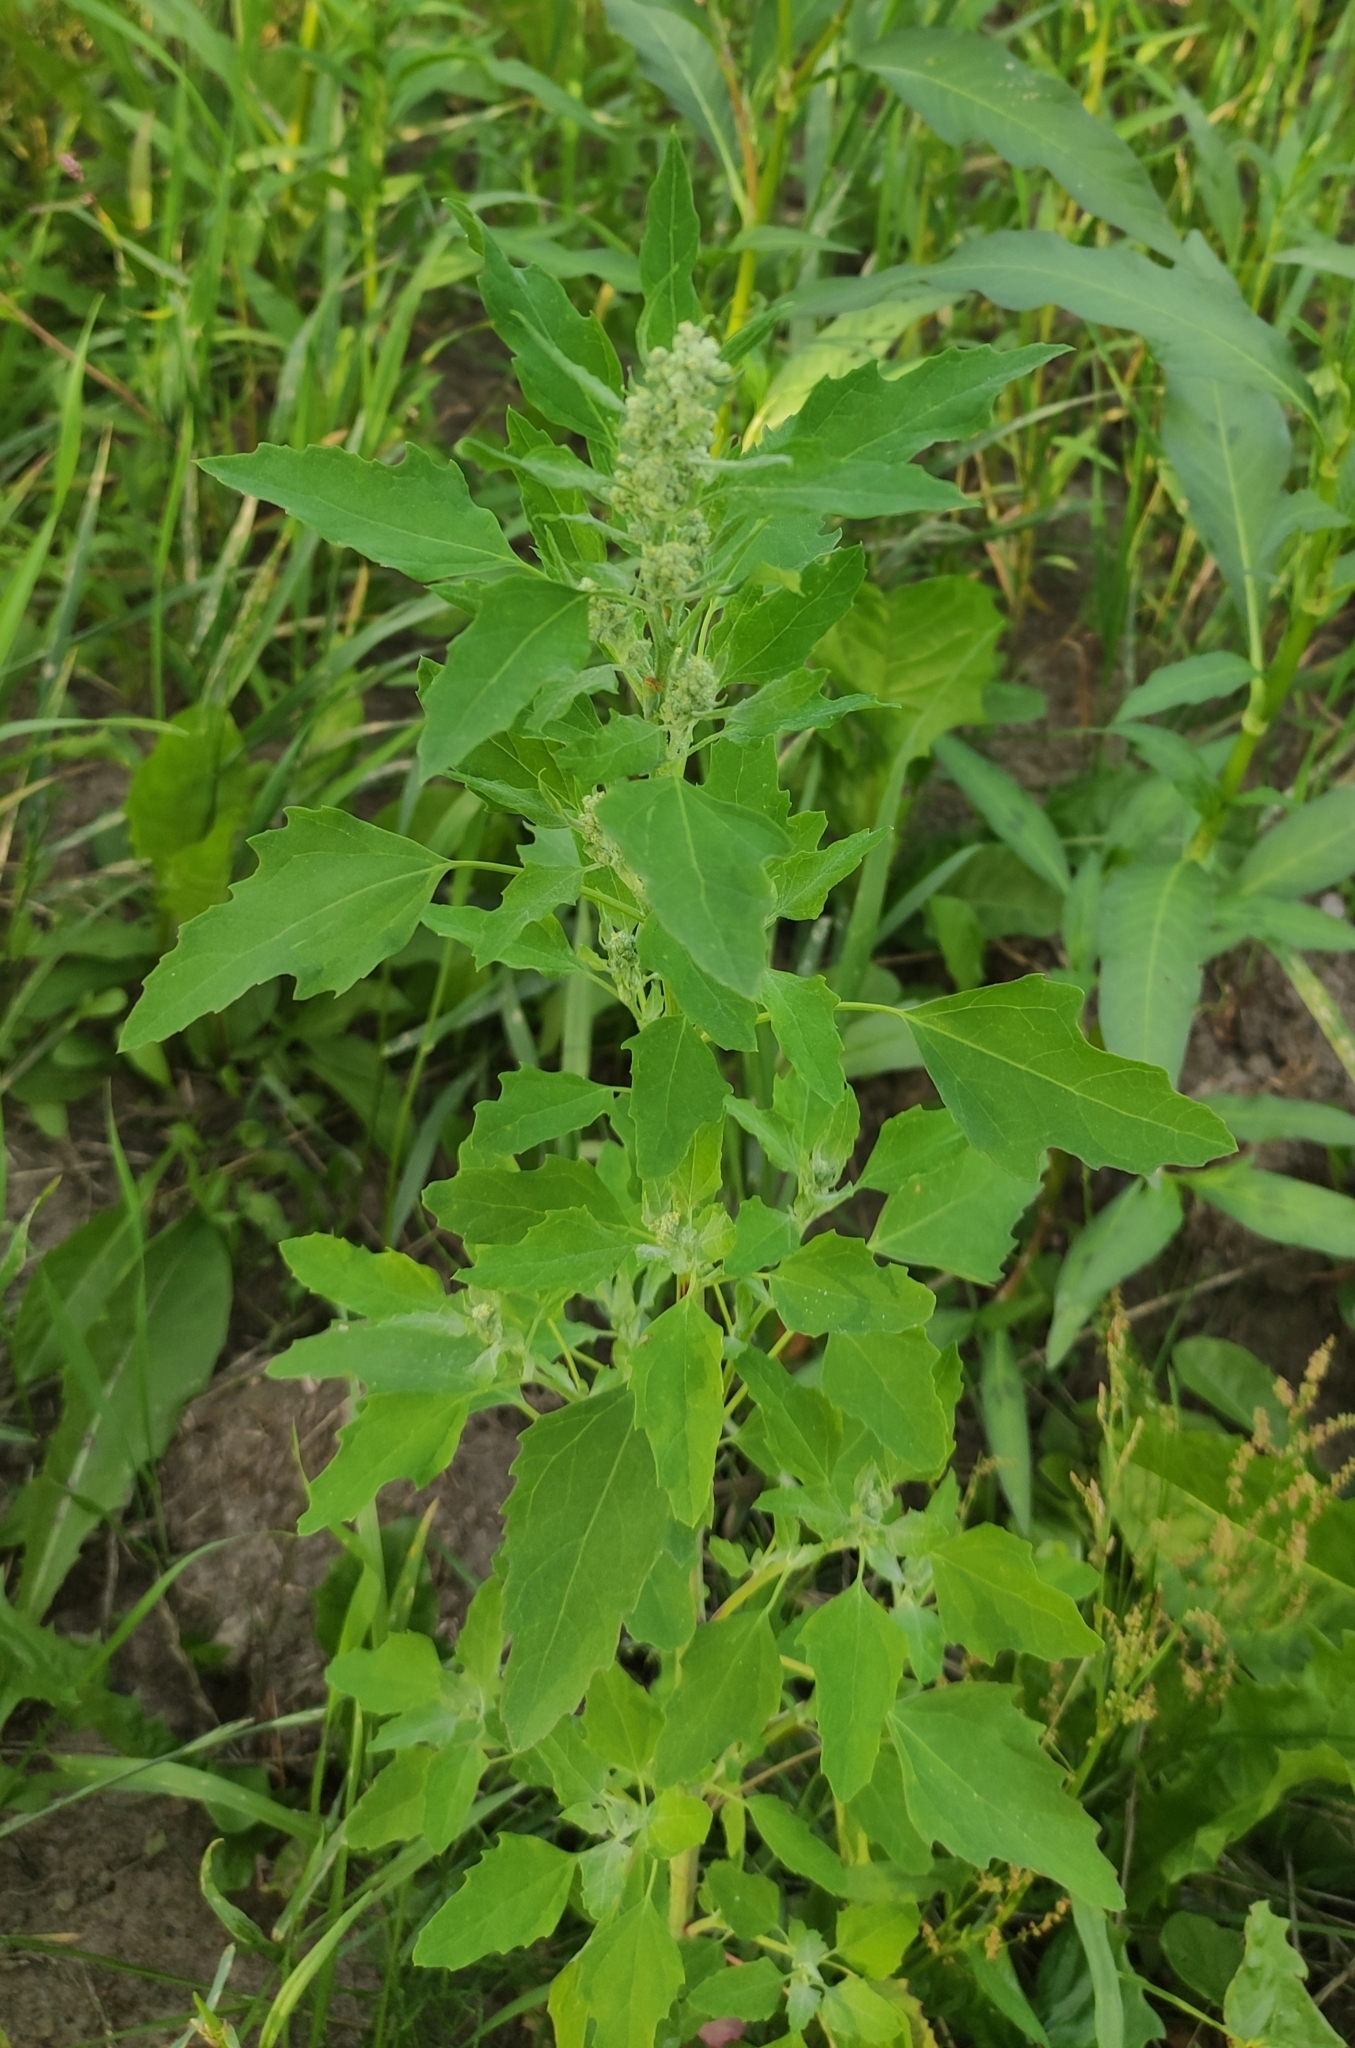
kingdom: Plantae
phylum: Tracheophyta
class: Magnoliopsida
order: Caryophyllales
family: Amaranthaceae
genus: Chenopodium
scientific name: Chenopodium album
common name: Fat-hen
